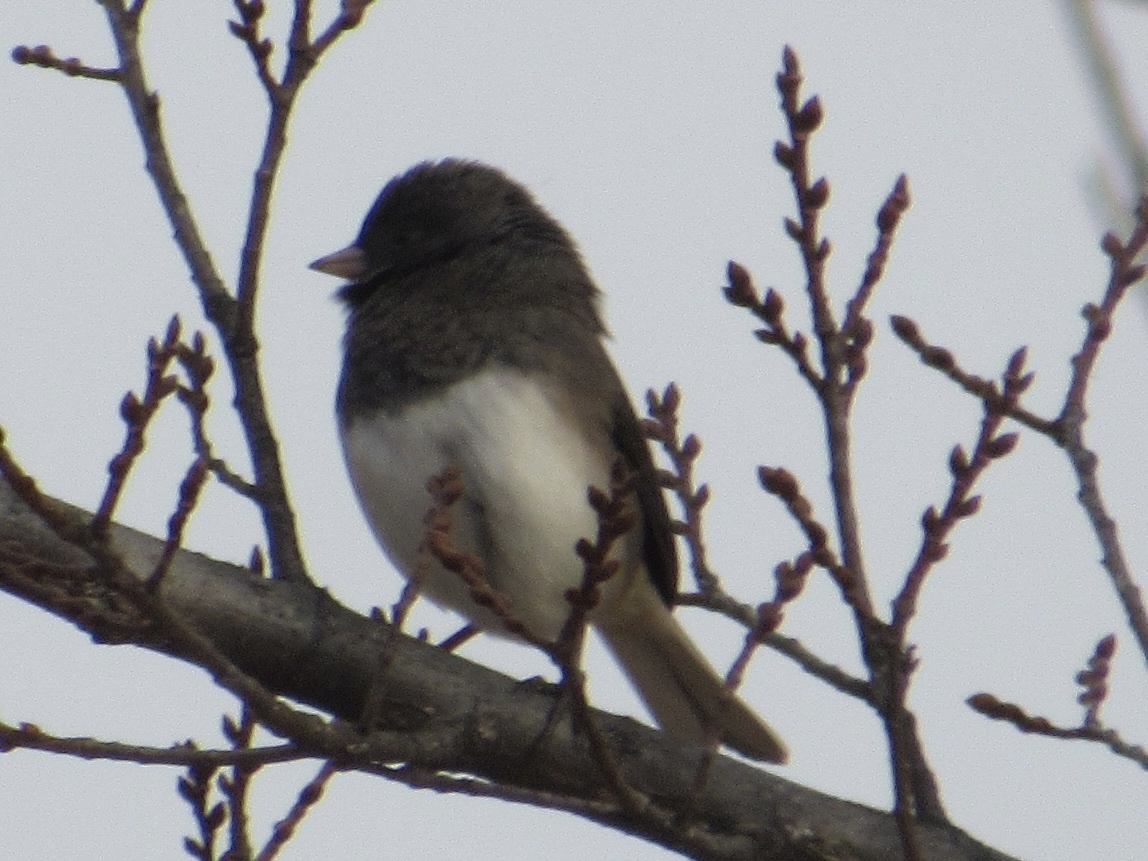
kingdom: Animalia
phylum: Chordata
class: Aves
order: Passeriformes
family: Passerellidae
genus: Junco
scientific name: Junco hyemalis
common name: Dark-eyed junco
